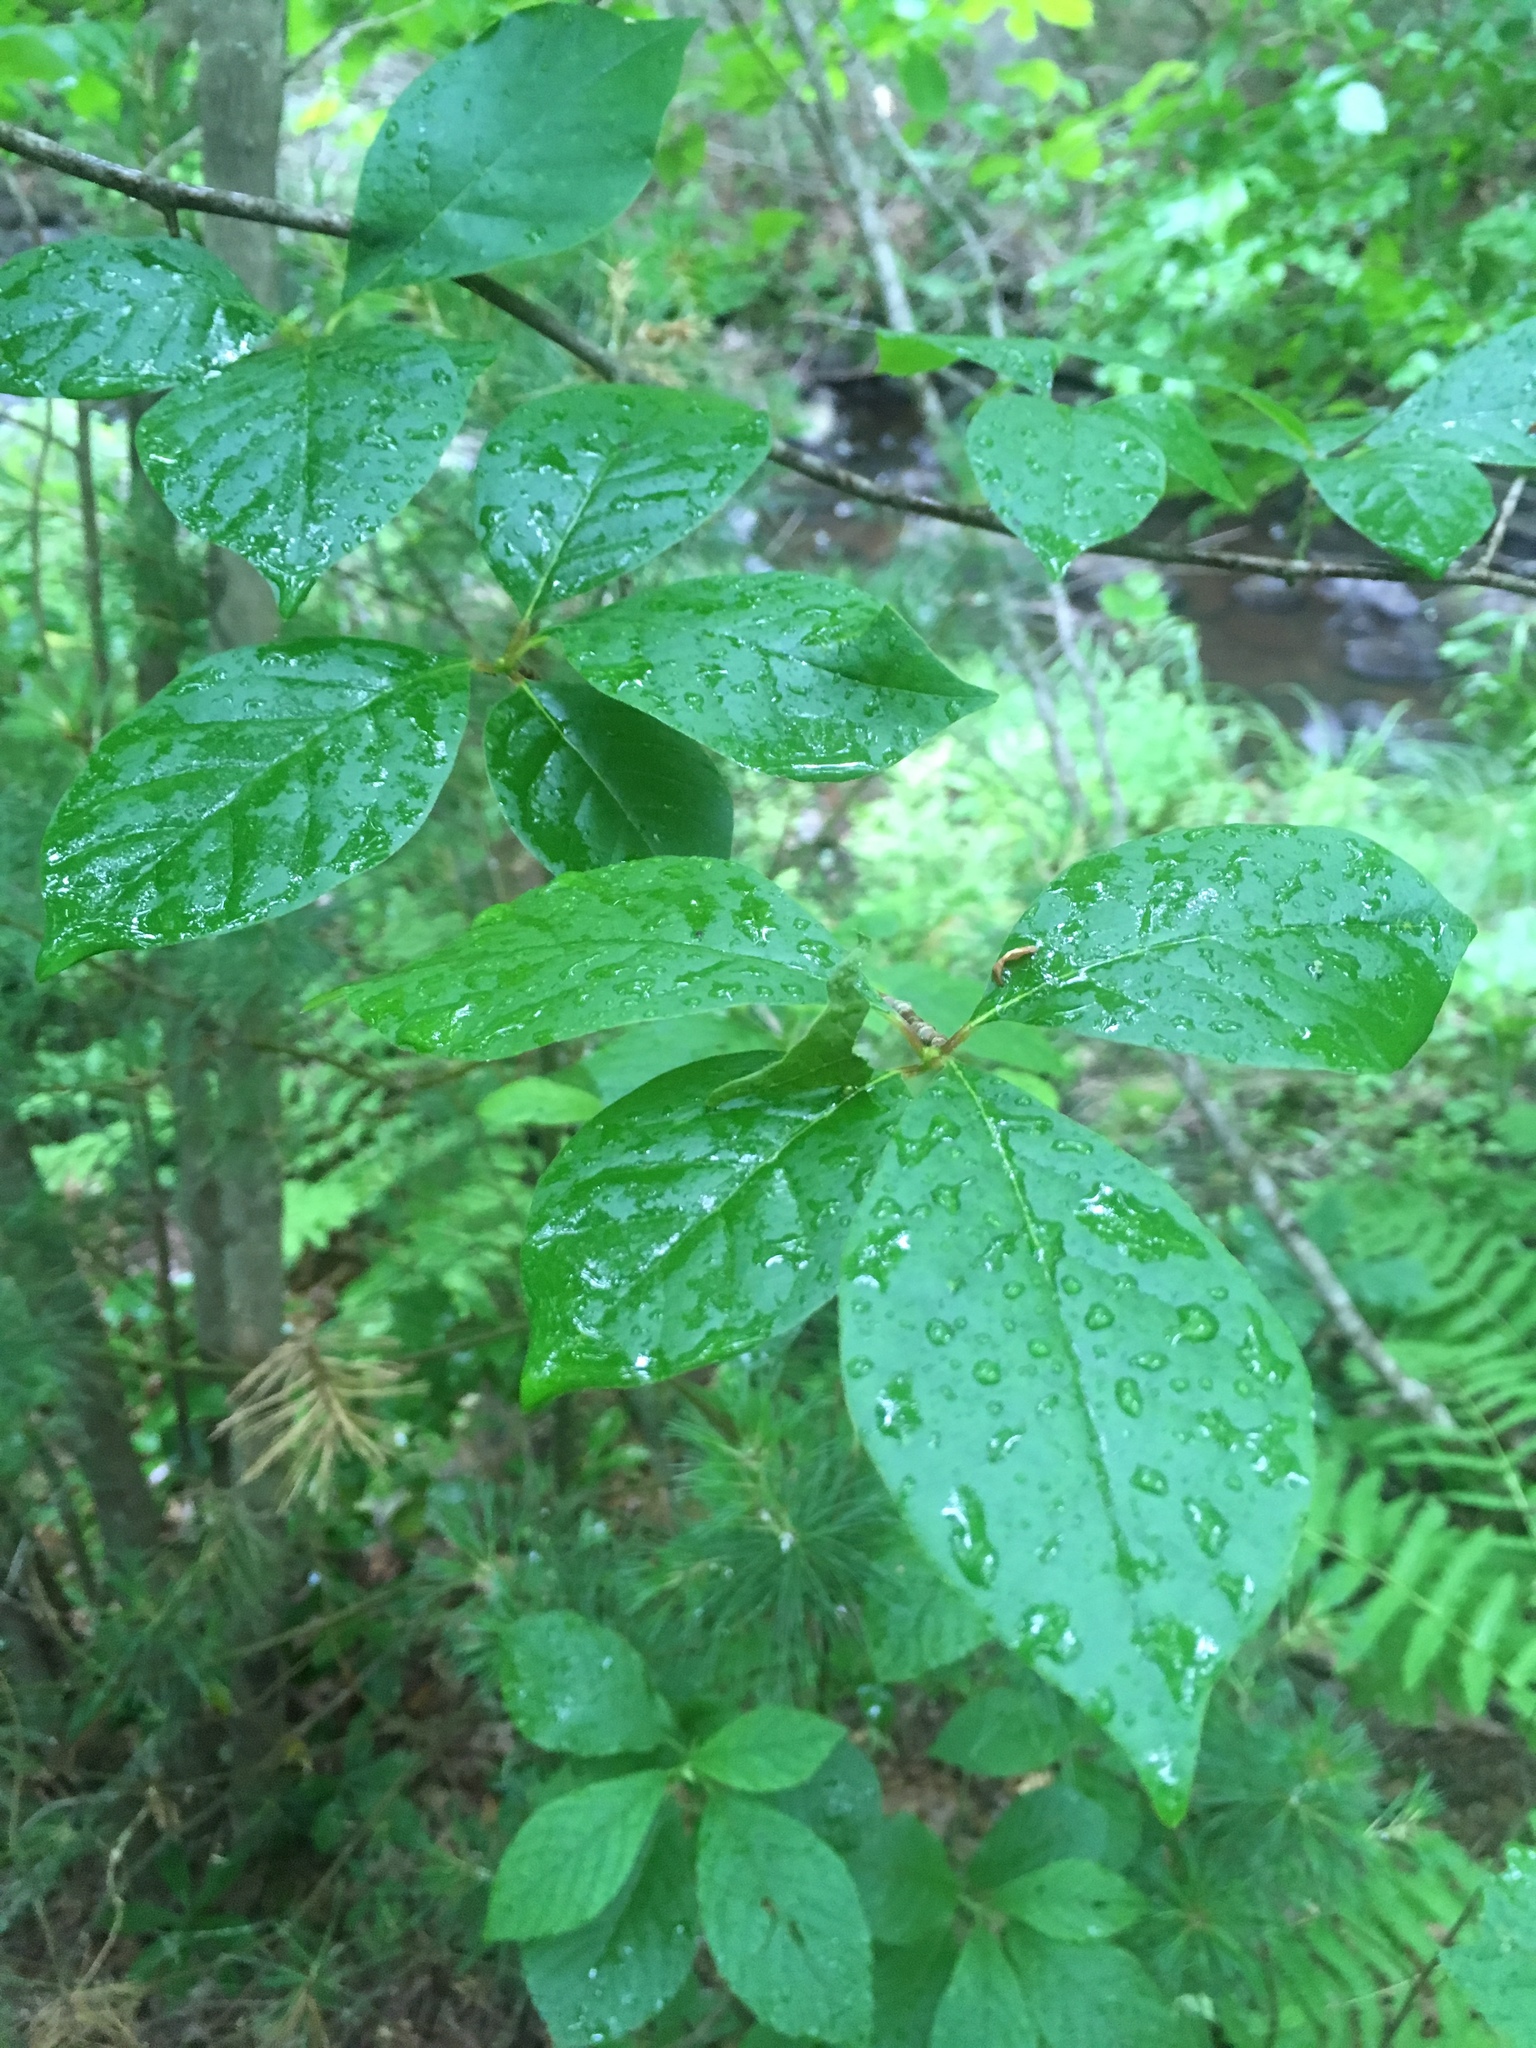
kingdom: Plantae
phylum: Tracheophyta
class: Magnoliopsida
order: Cornales
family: Nyssaceae
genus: Nyssa
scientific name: Nyssa sylvatica
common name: Black tupelo
